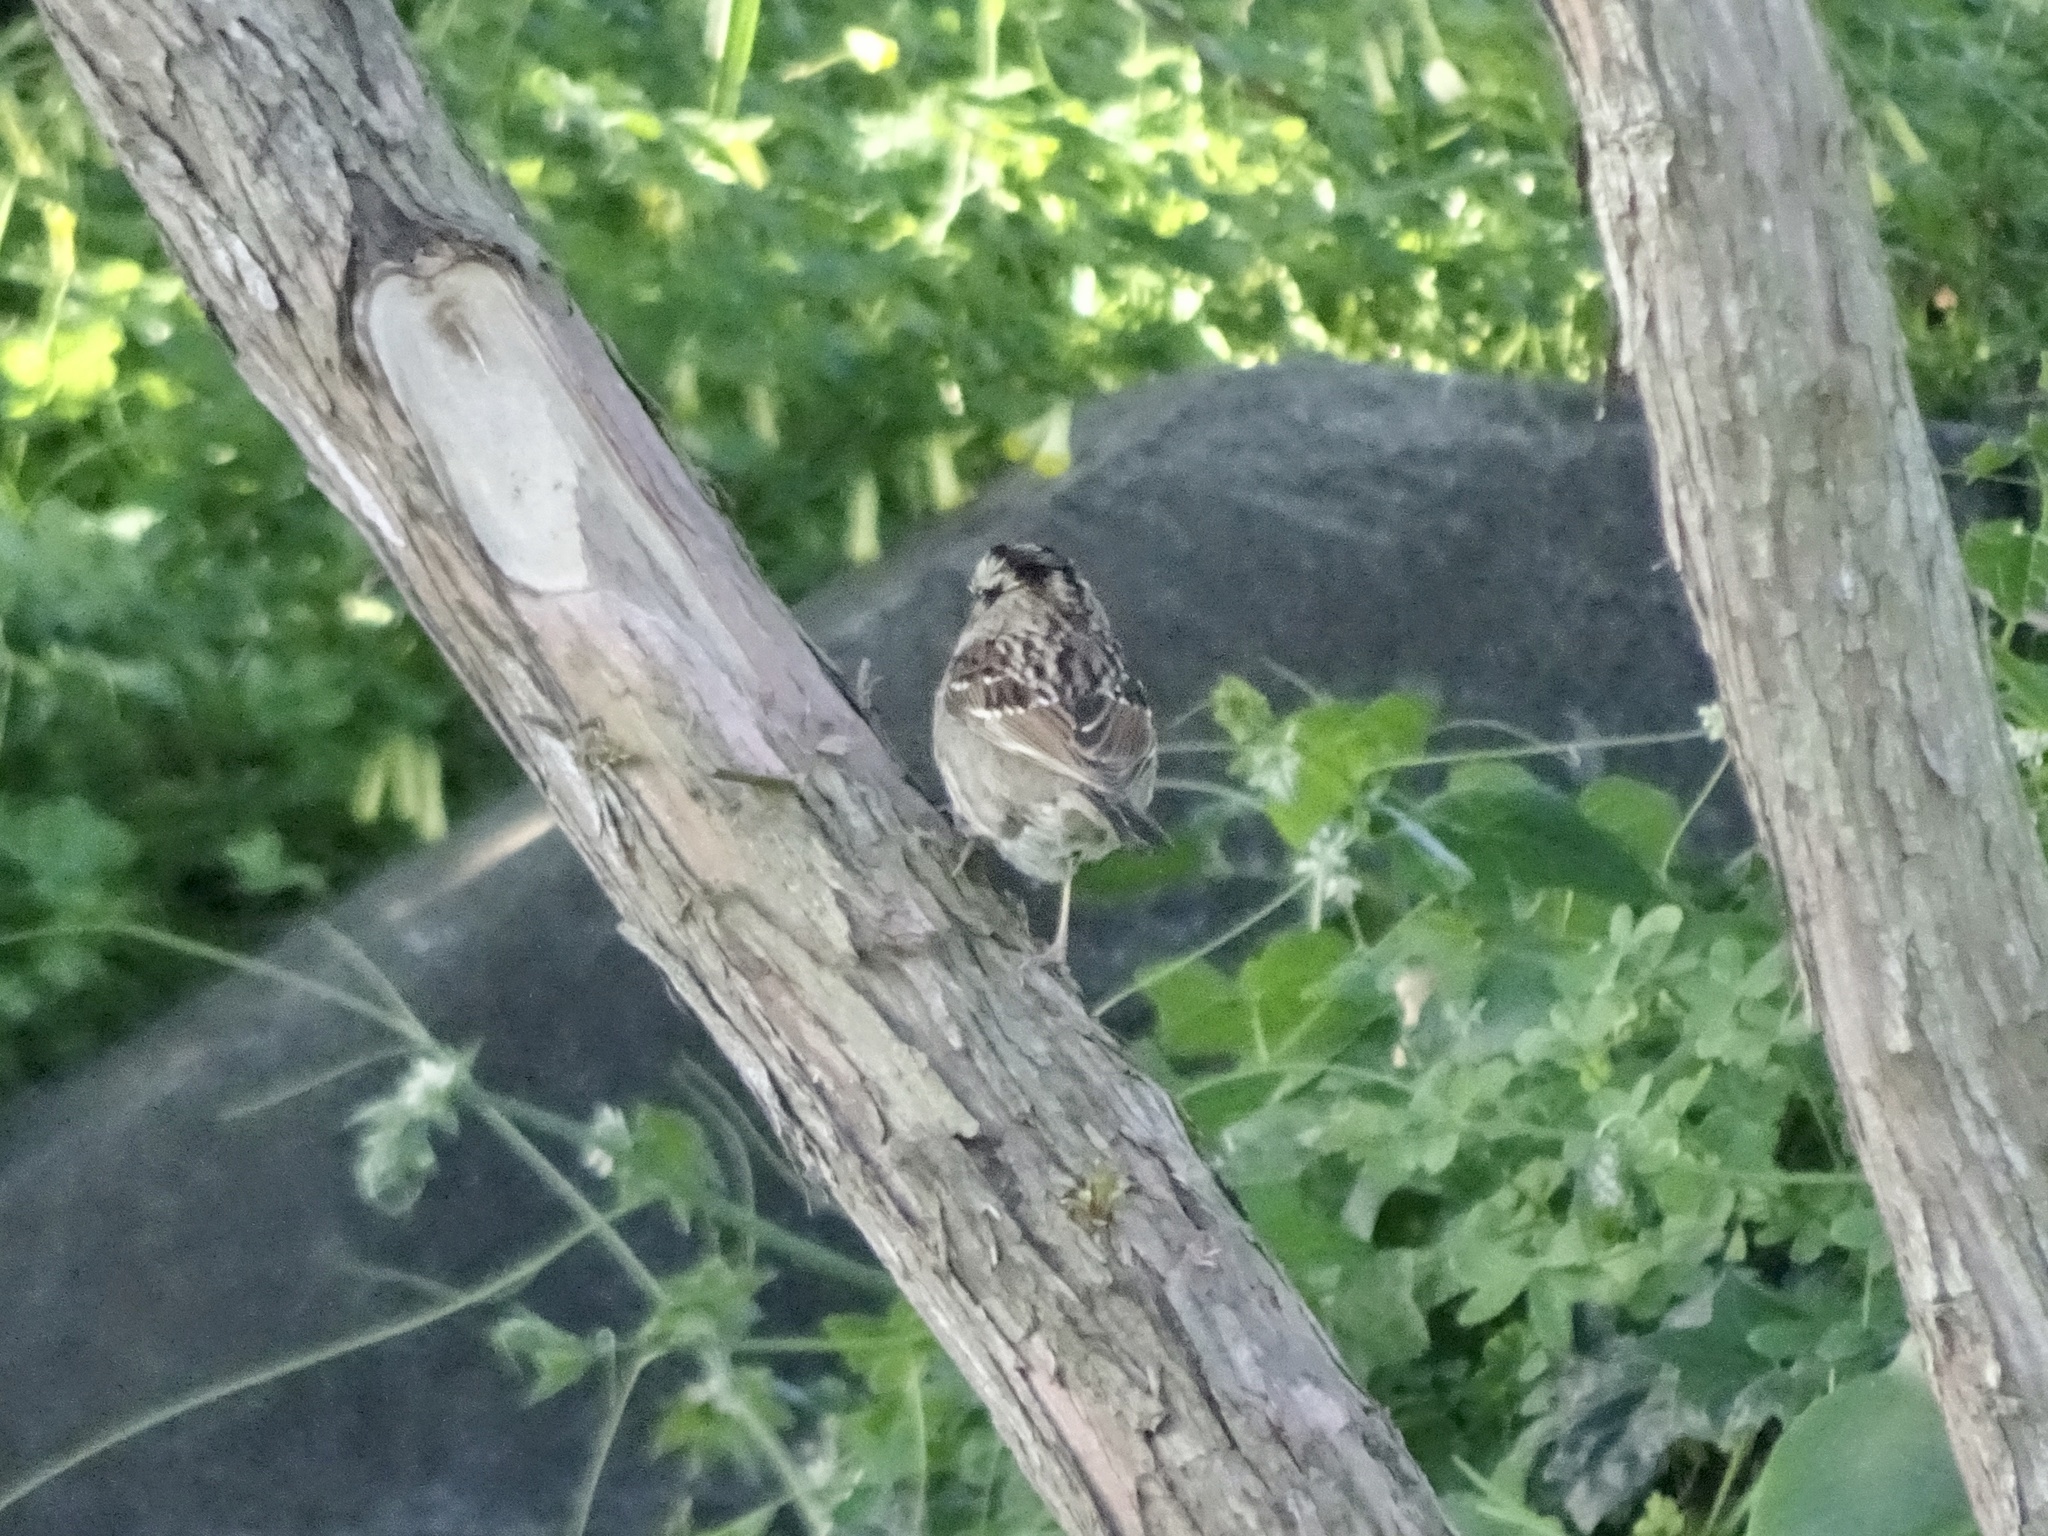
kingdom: Animalia
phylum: Chordata
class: Aves
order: Passeriformes
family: Passerellidae
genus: Zonotrichia
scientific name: Zonotrichia albicollis
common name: White-throated sparrow
